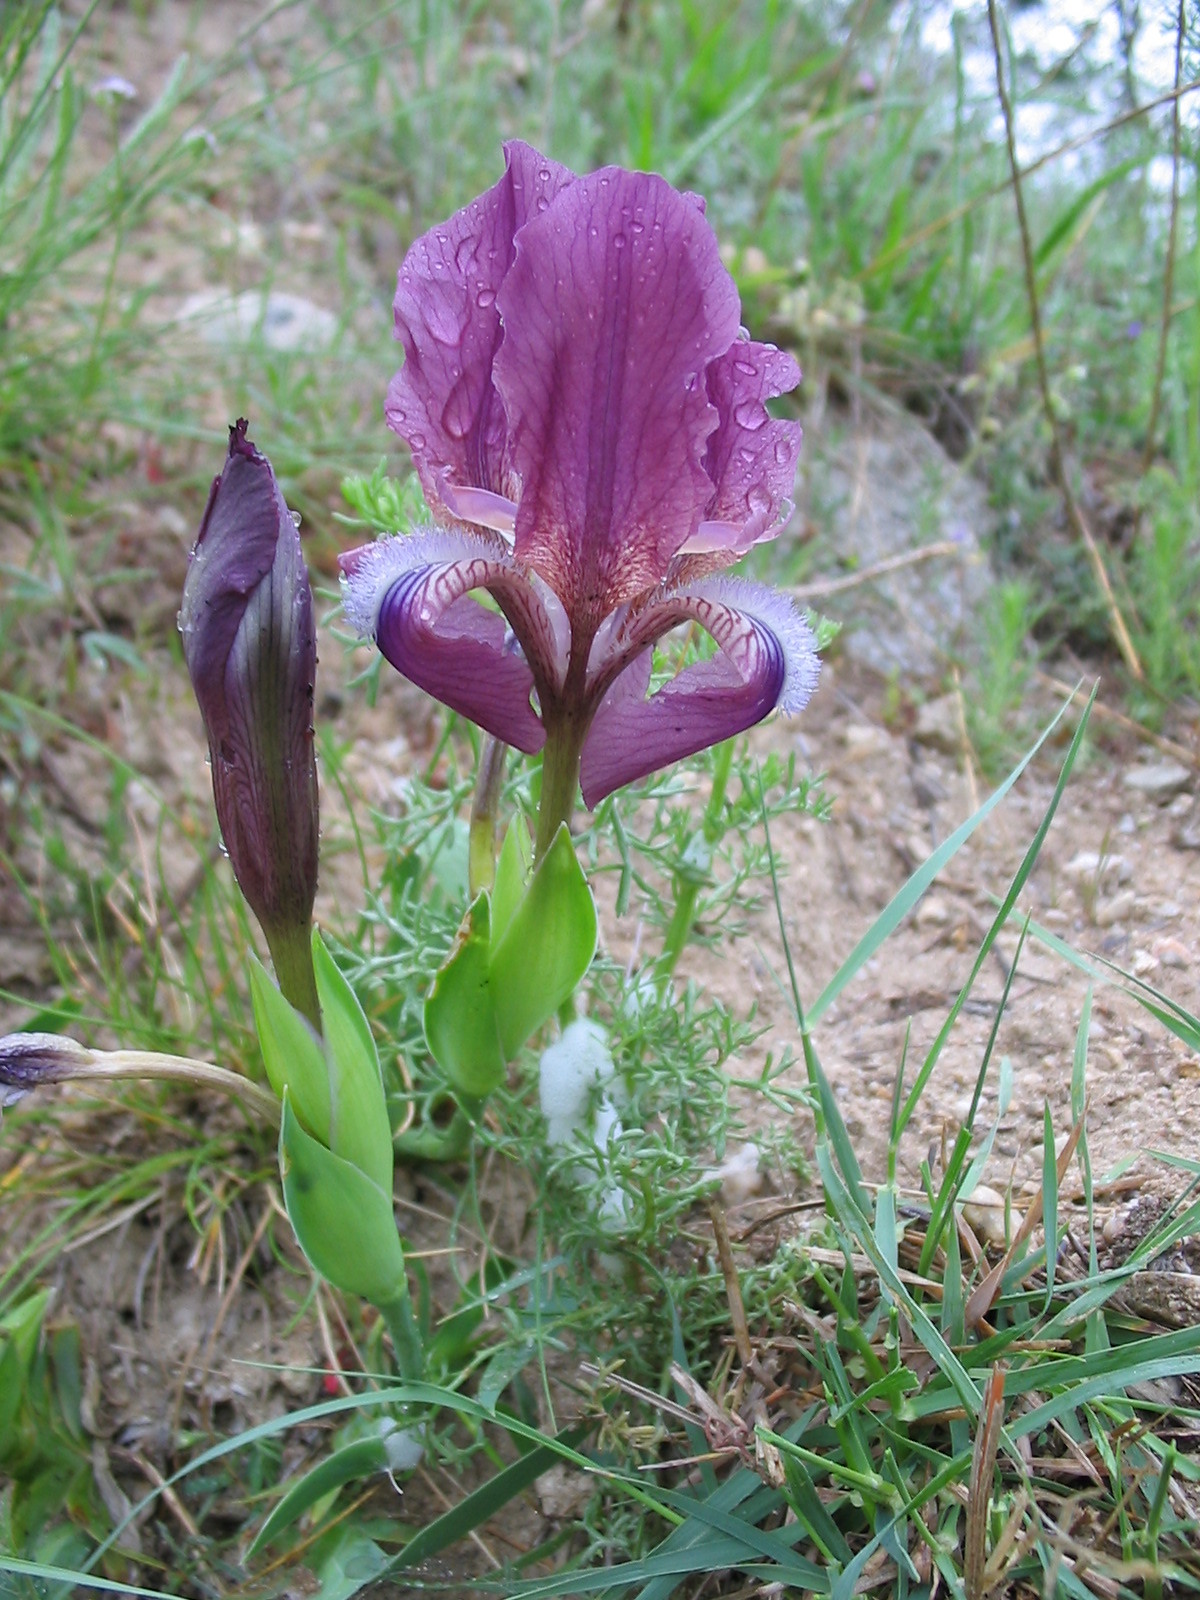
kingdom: Plantae
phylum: Tracheophyta
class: Liliopsida
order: Asparagales
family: Iridaceae
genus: Iris
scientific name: Iris reichenbachii
